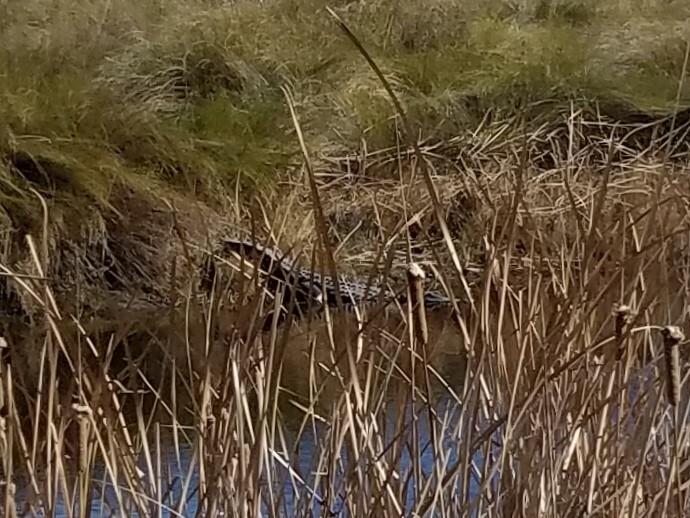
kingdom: Animalia
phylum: Chordata
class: Crocodylia
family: Alligatoridae
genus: Alligator
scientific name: Alligator mississippiensis
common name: American alligator
